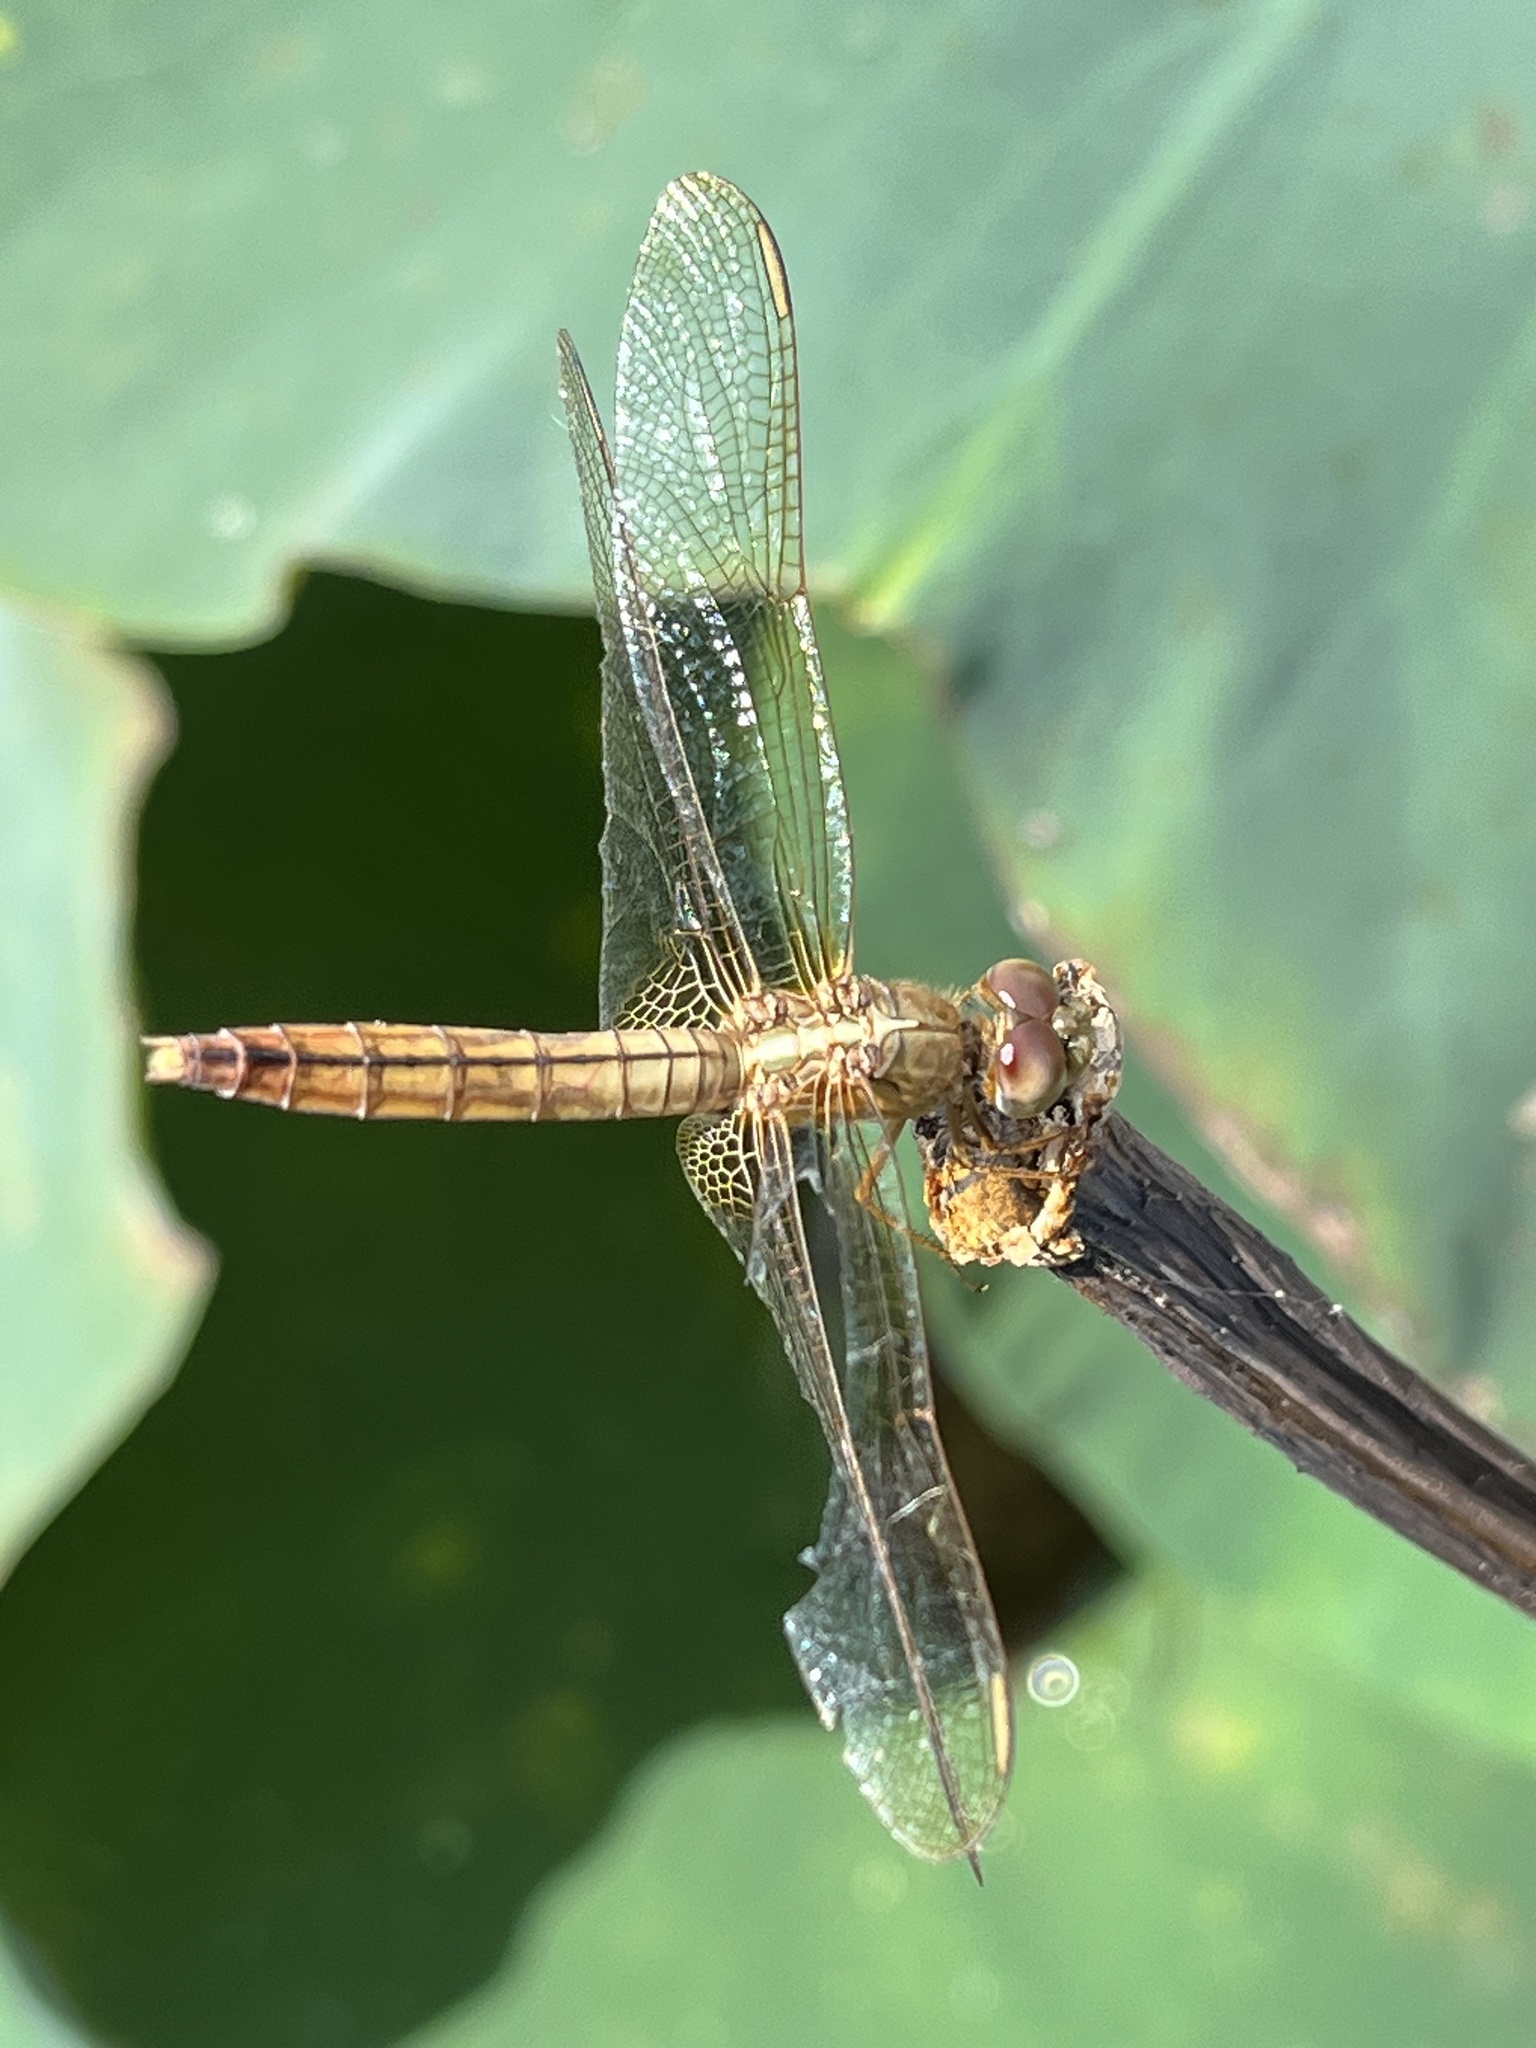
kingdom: Animalia
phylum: Arthropoda
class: Insecta
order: Odonata
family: Libellulidae
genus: Crocothemis
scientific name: Crocothemis servilia
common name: Scarlet skimmer
